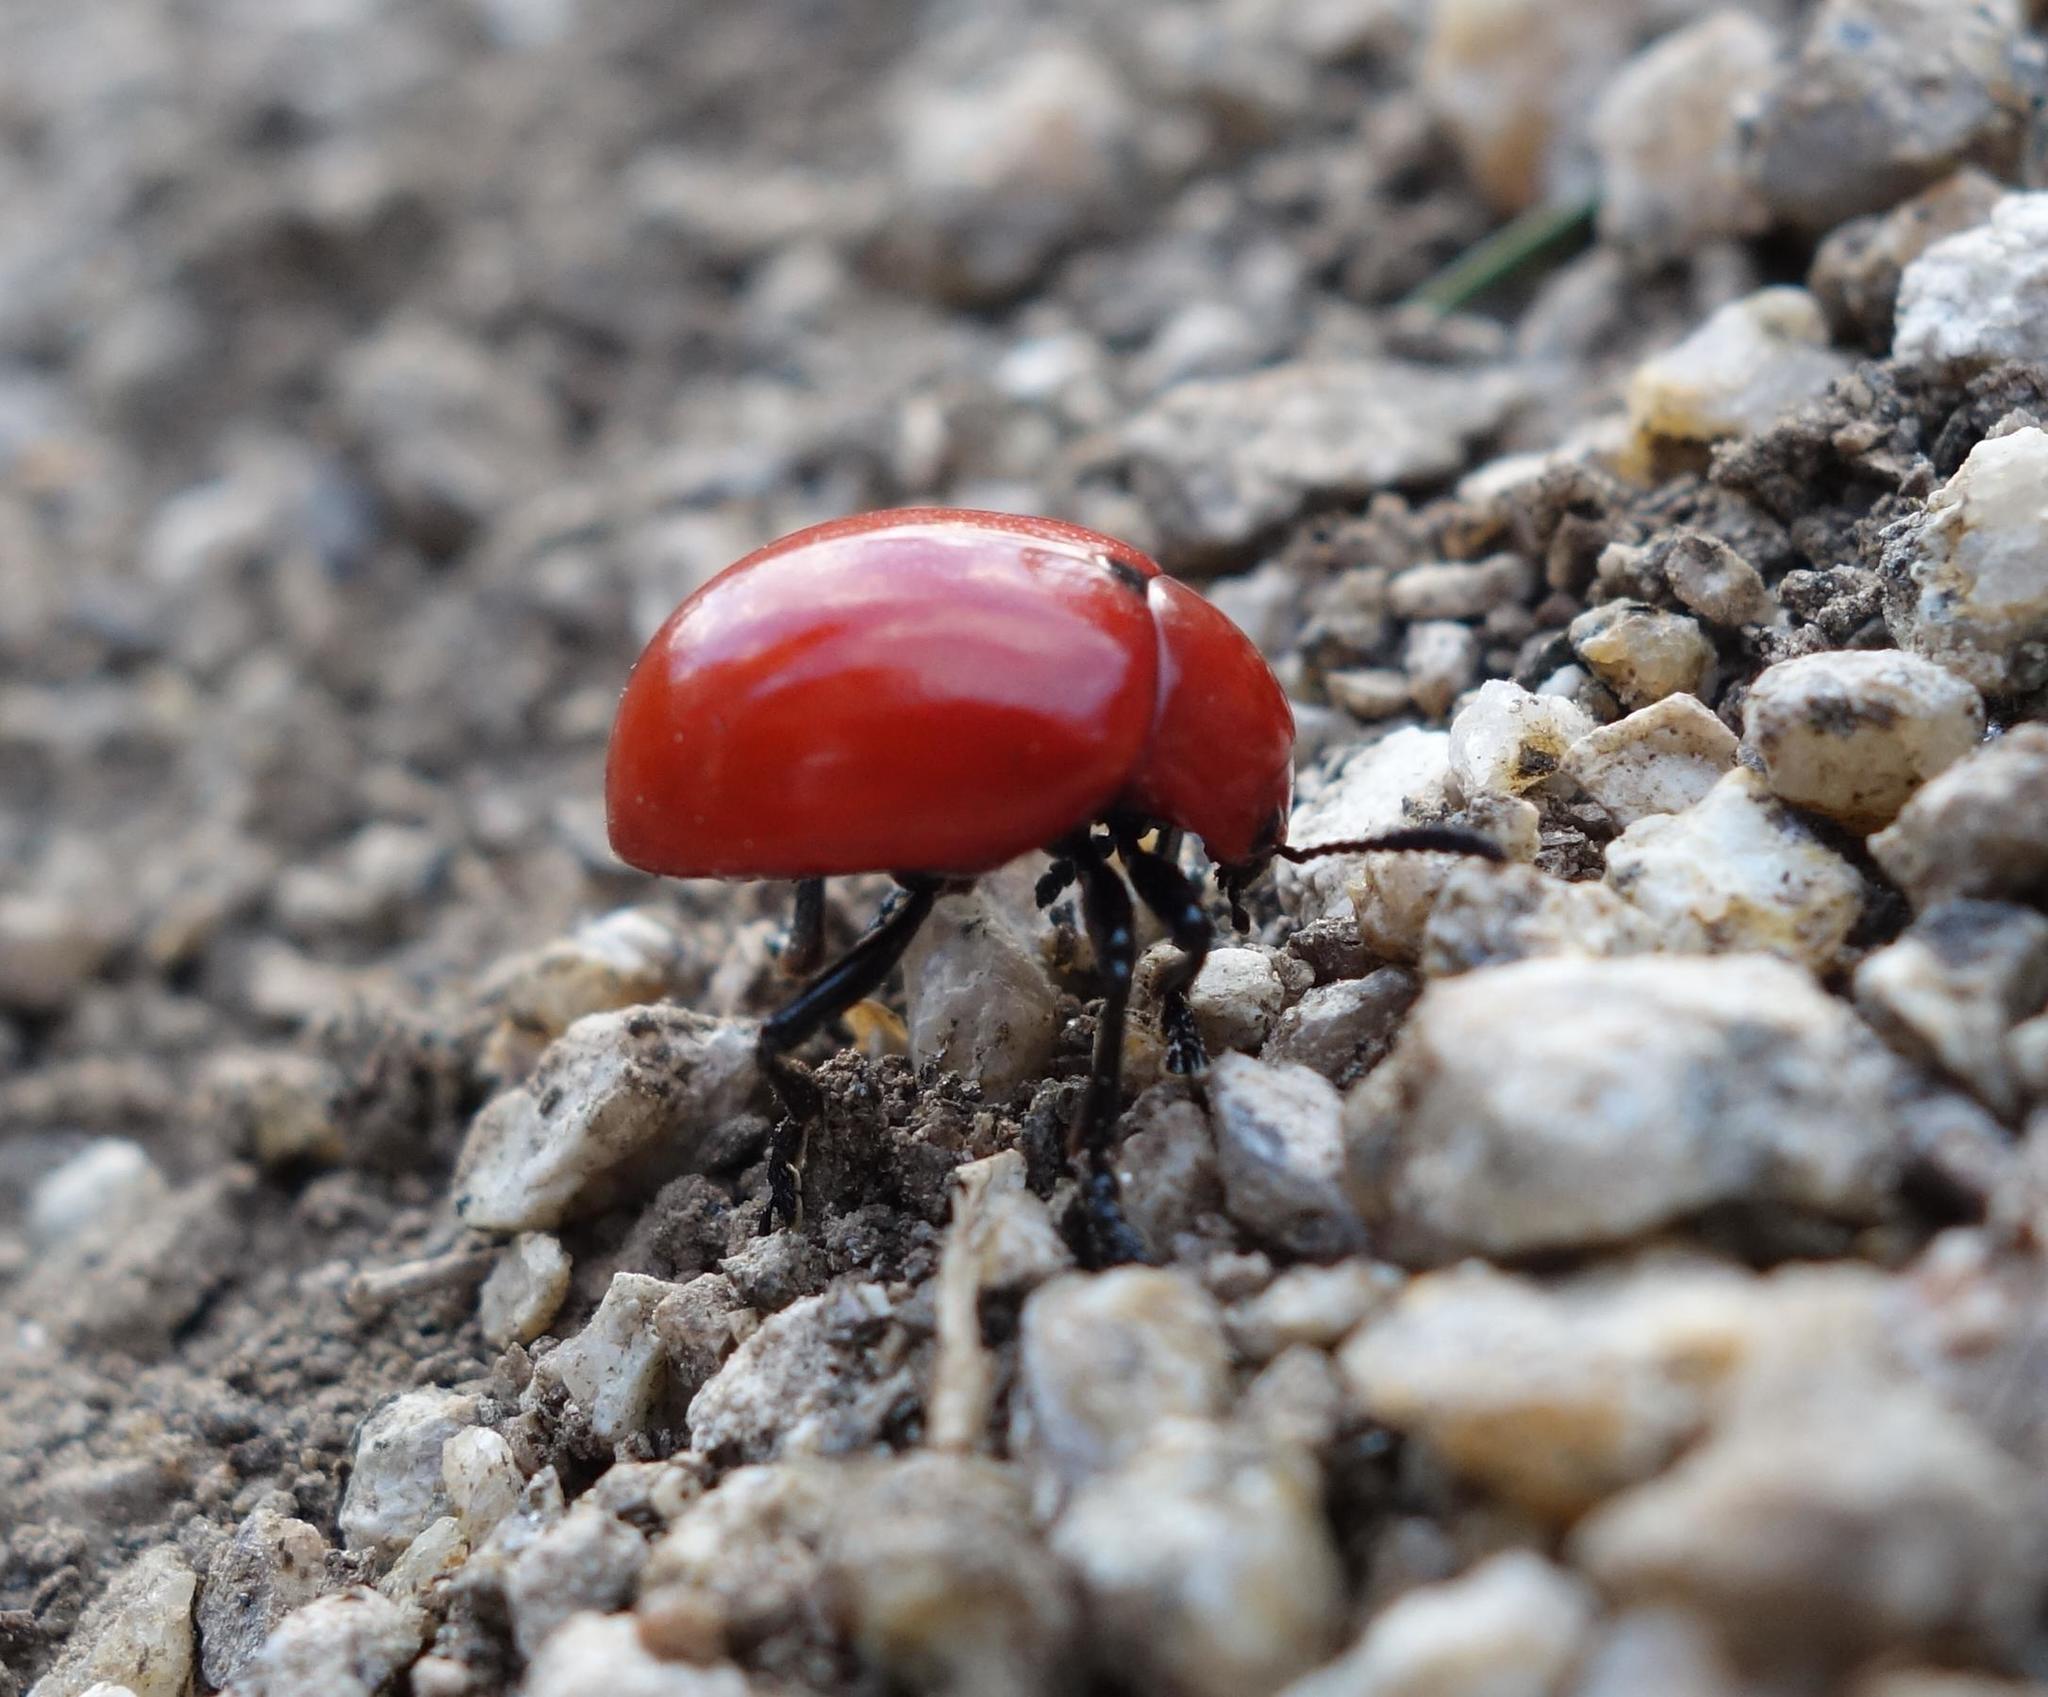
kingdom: Animalia
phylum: Arthropoda
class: Insecta
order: Coleoptera
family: Chrysomelidae
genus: Leptinotarsa
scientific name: Leptinotarsa rubiginosa
